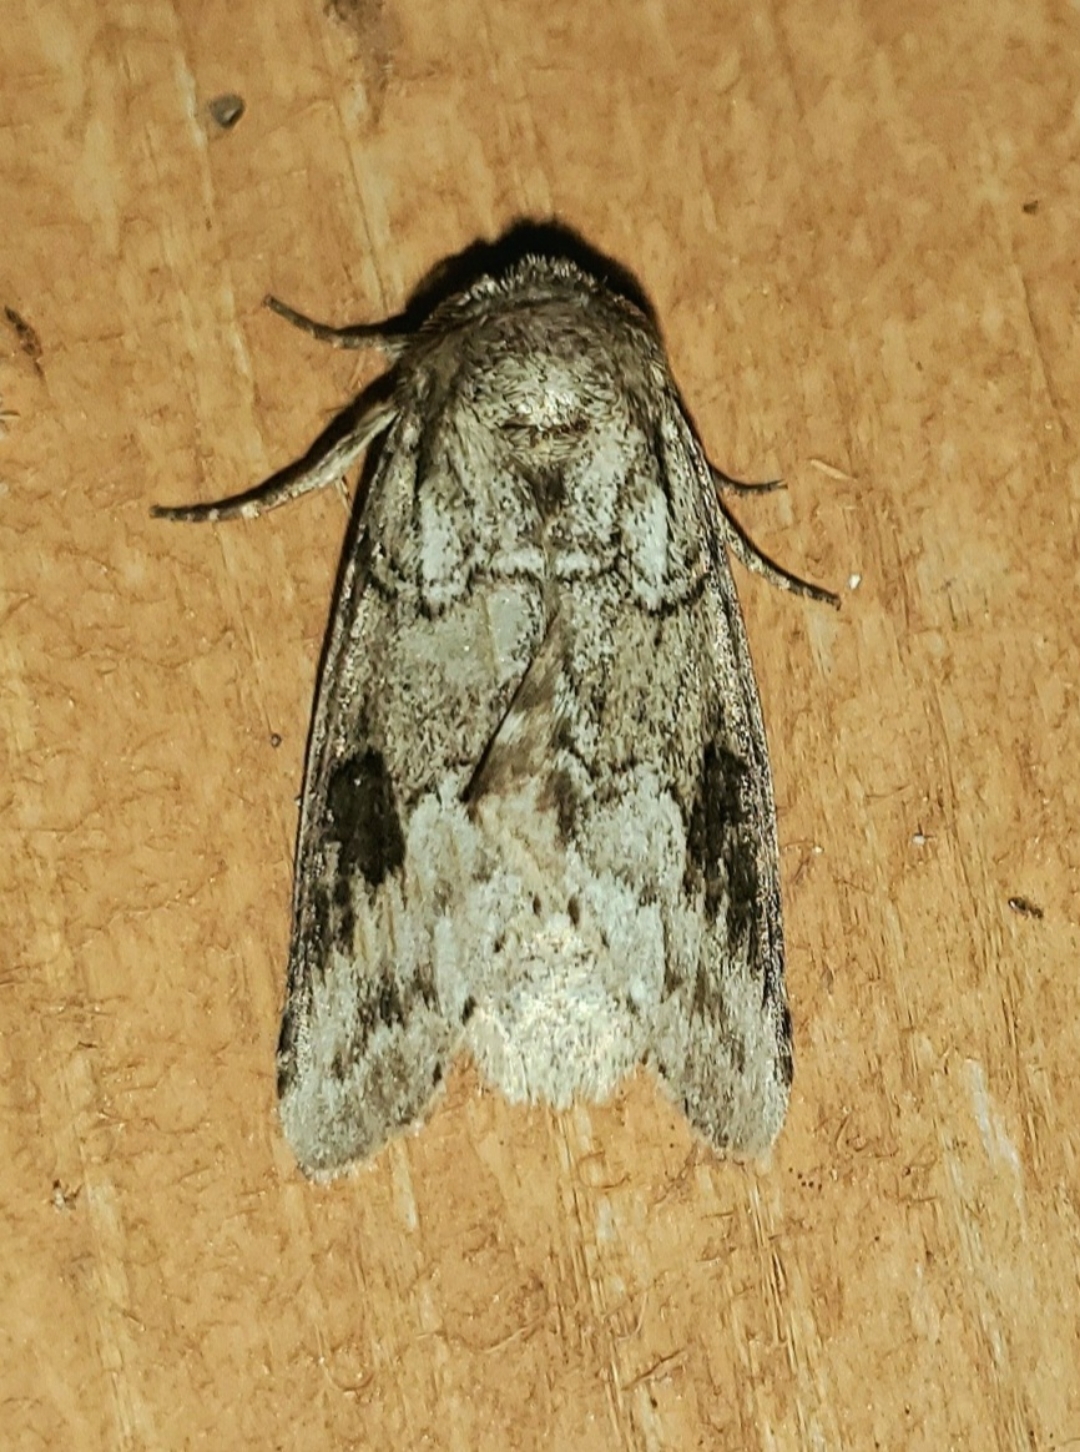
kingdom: Animalia
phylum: Arthropoda
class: Insecta
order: Lepidoptera
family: Notodontidae
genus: Lochmaeus
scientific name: Lochmaeus bilineata
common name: Double-lined prominent
